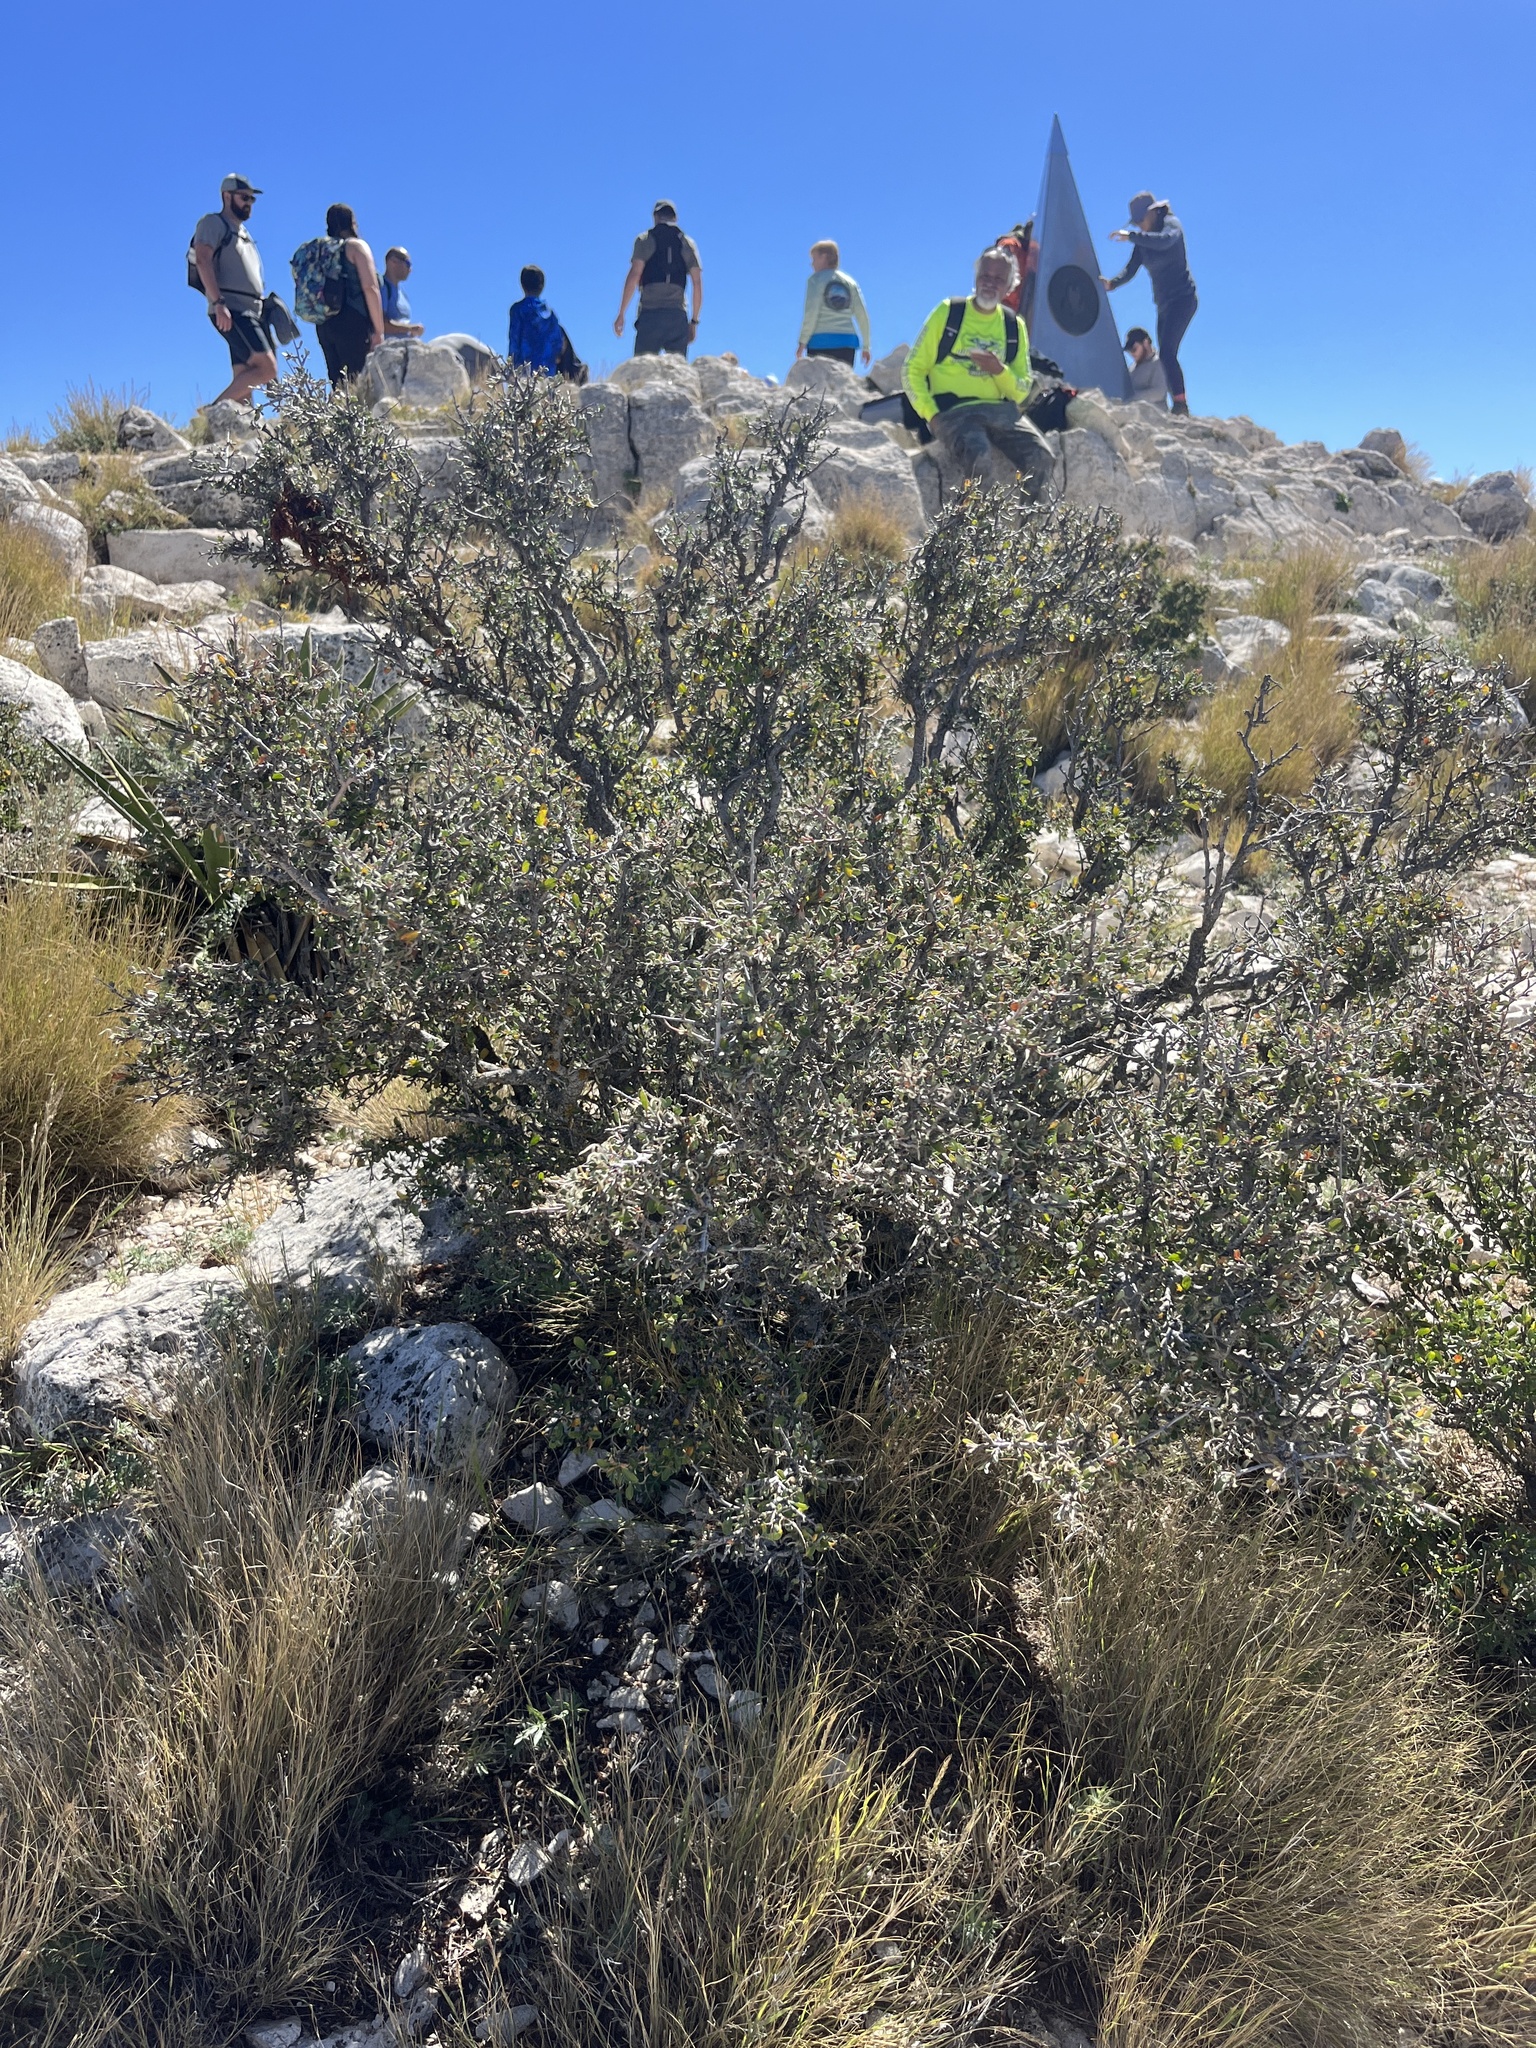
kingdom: Plantae
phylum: Tracheophyta
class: Magnoliopsida
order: Rosales
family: Rosaceae
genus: Cercocarpus
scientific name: Cercocarpus breviflorus
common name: Wright's mountain-mahogany
